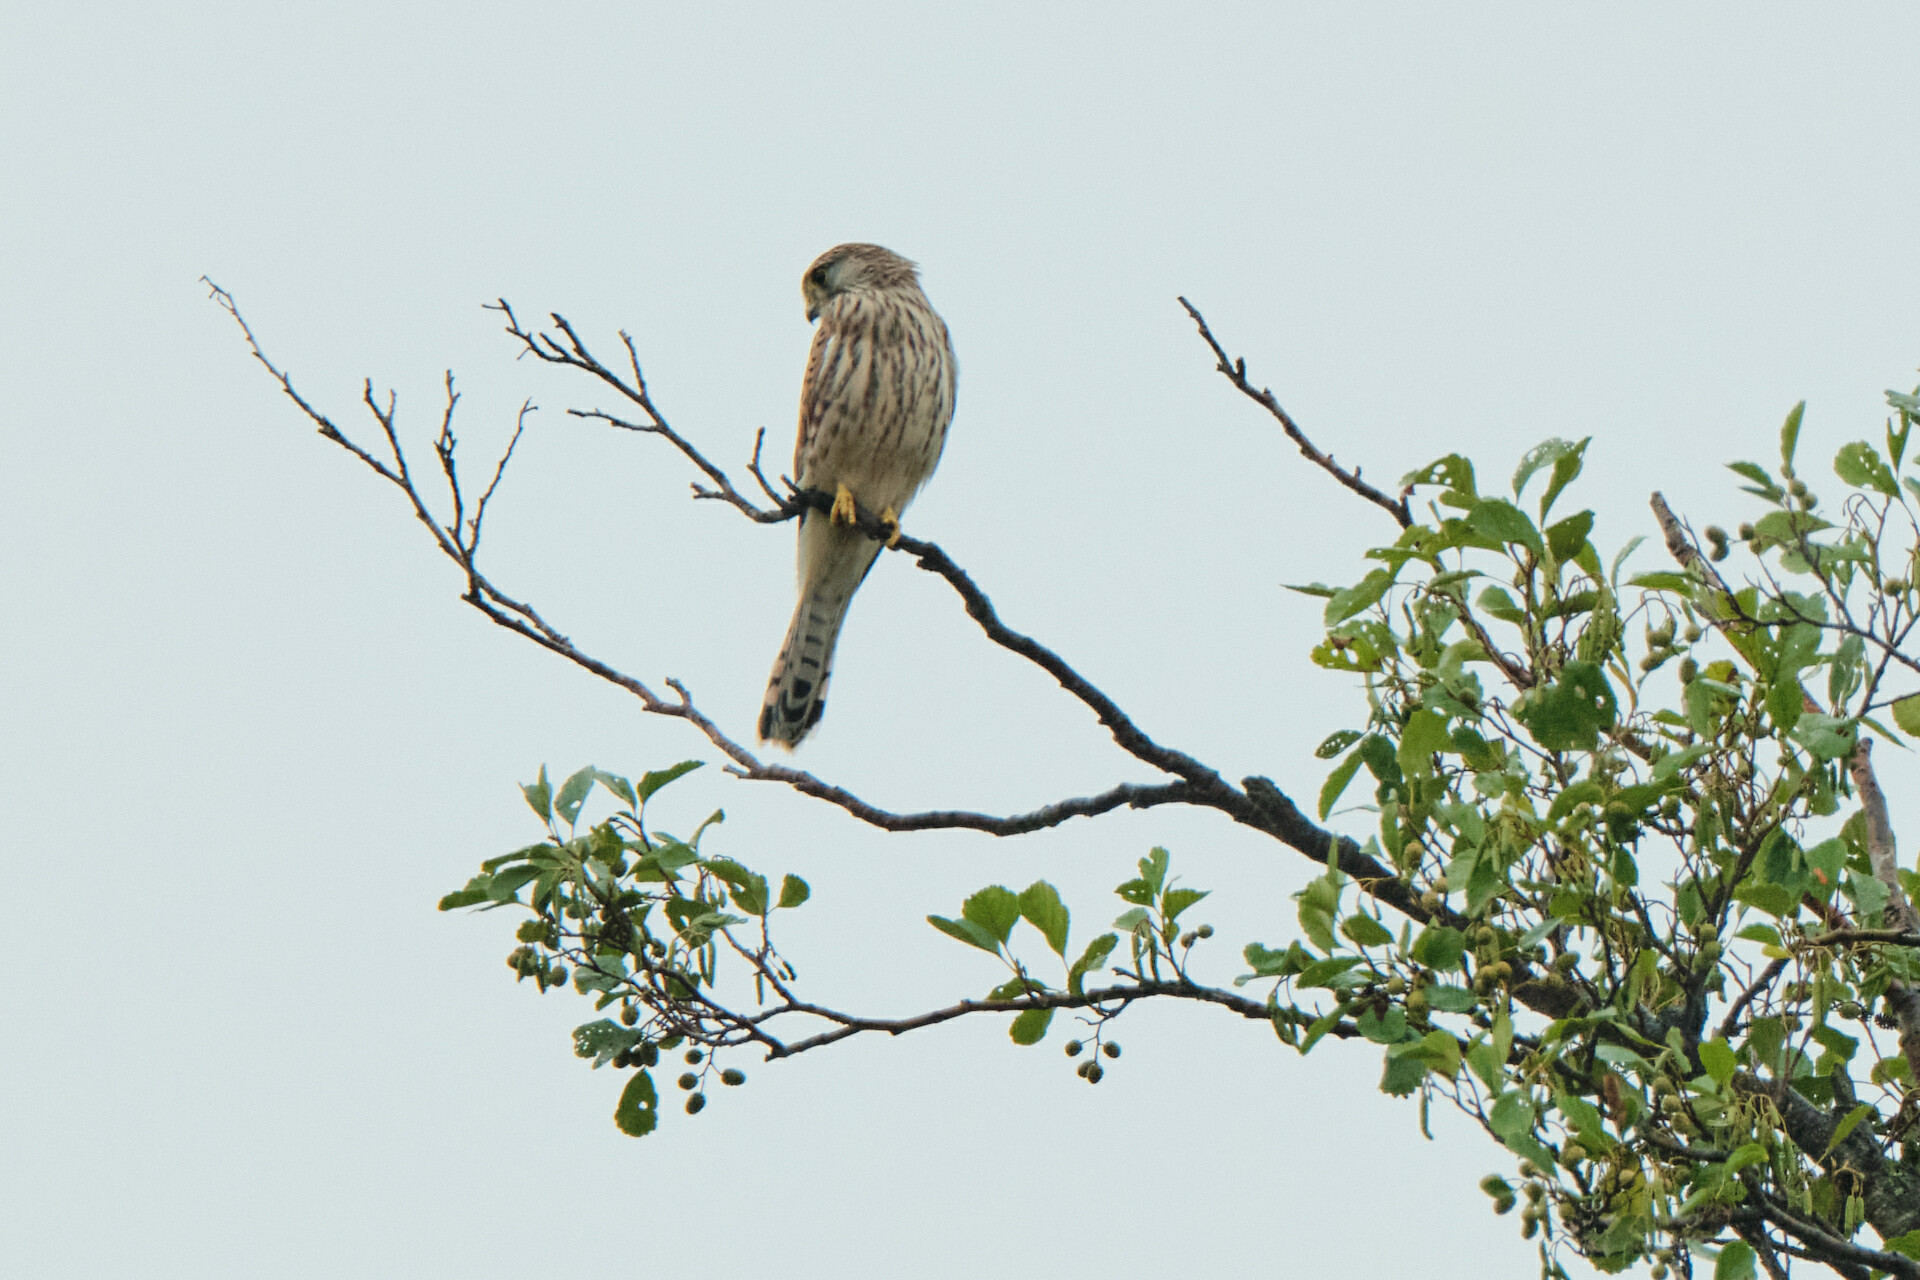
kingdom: Animalia
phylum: Chordata
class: Aves
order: Falconiformes
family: Falconidae
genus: Falco
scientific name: Falco tinnunculus
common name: Common kestrel
